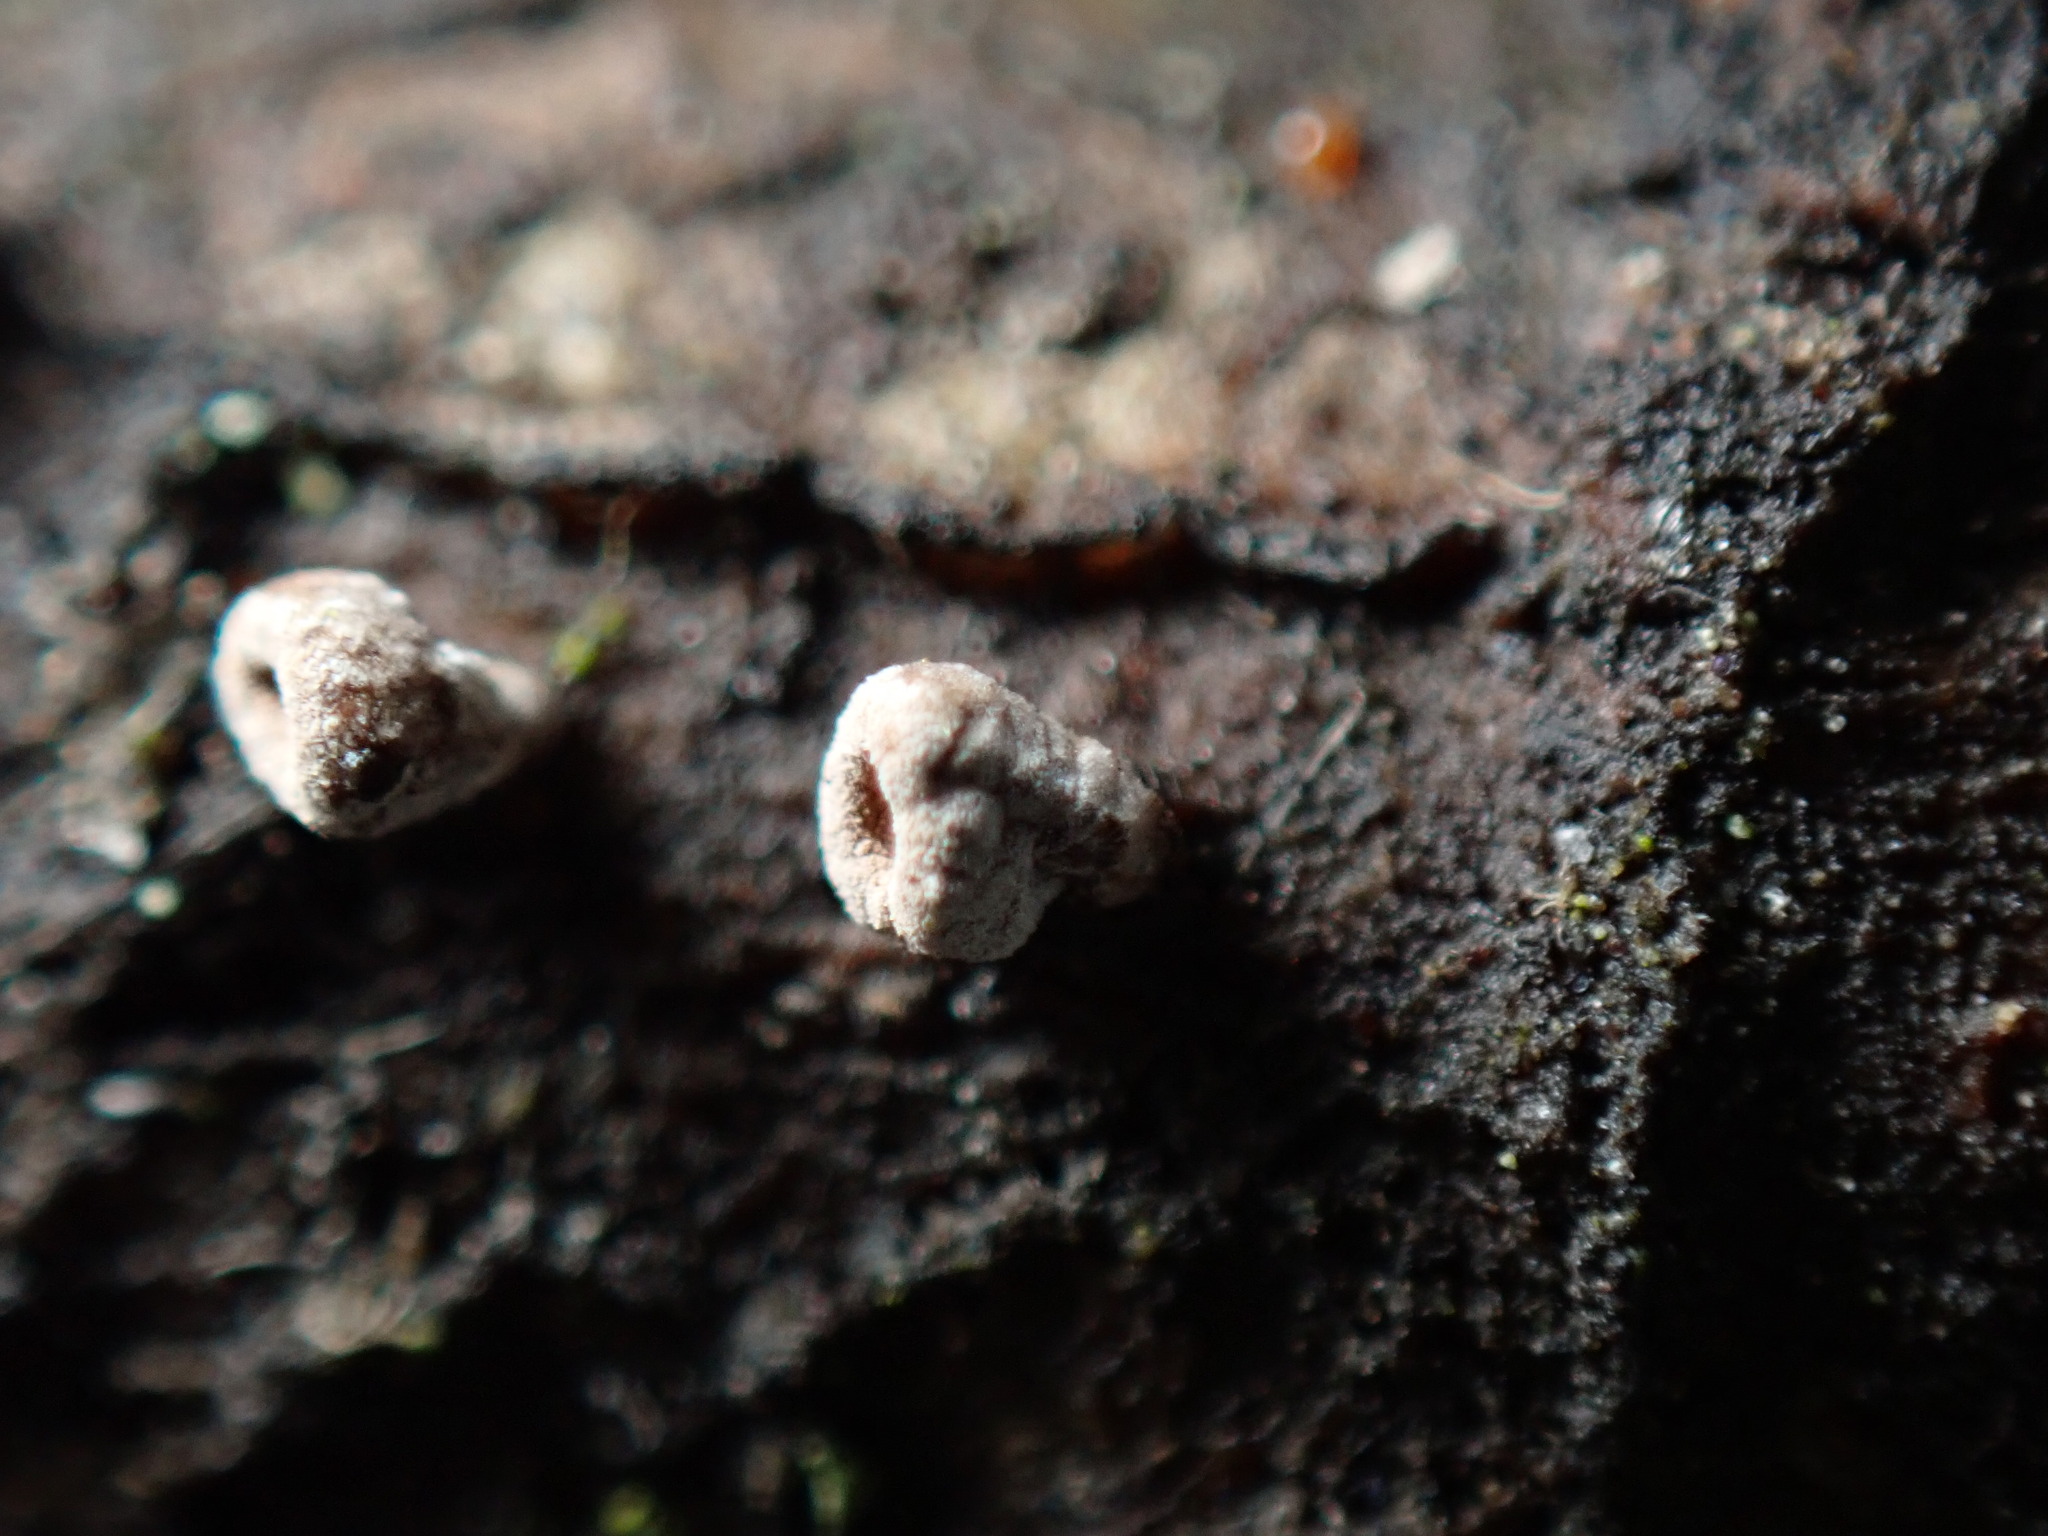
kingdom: Fungi
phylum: Basidiomycota
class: Agaricomycetes
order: Agaricales
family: Schizophyllaceae
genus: Porodisculus
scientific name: Porodisculus pendulus
